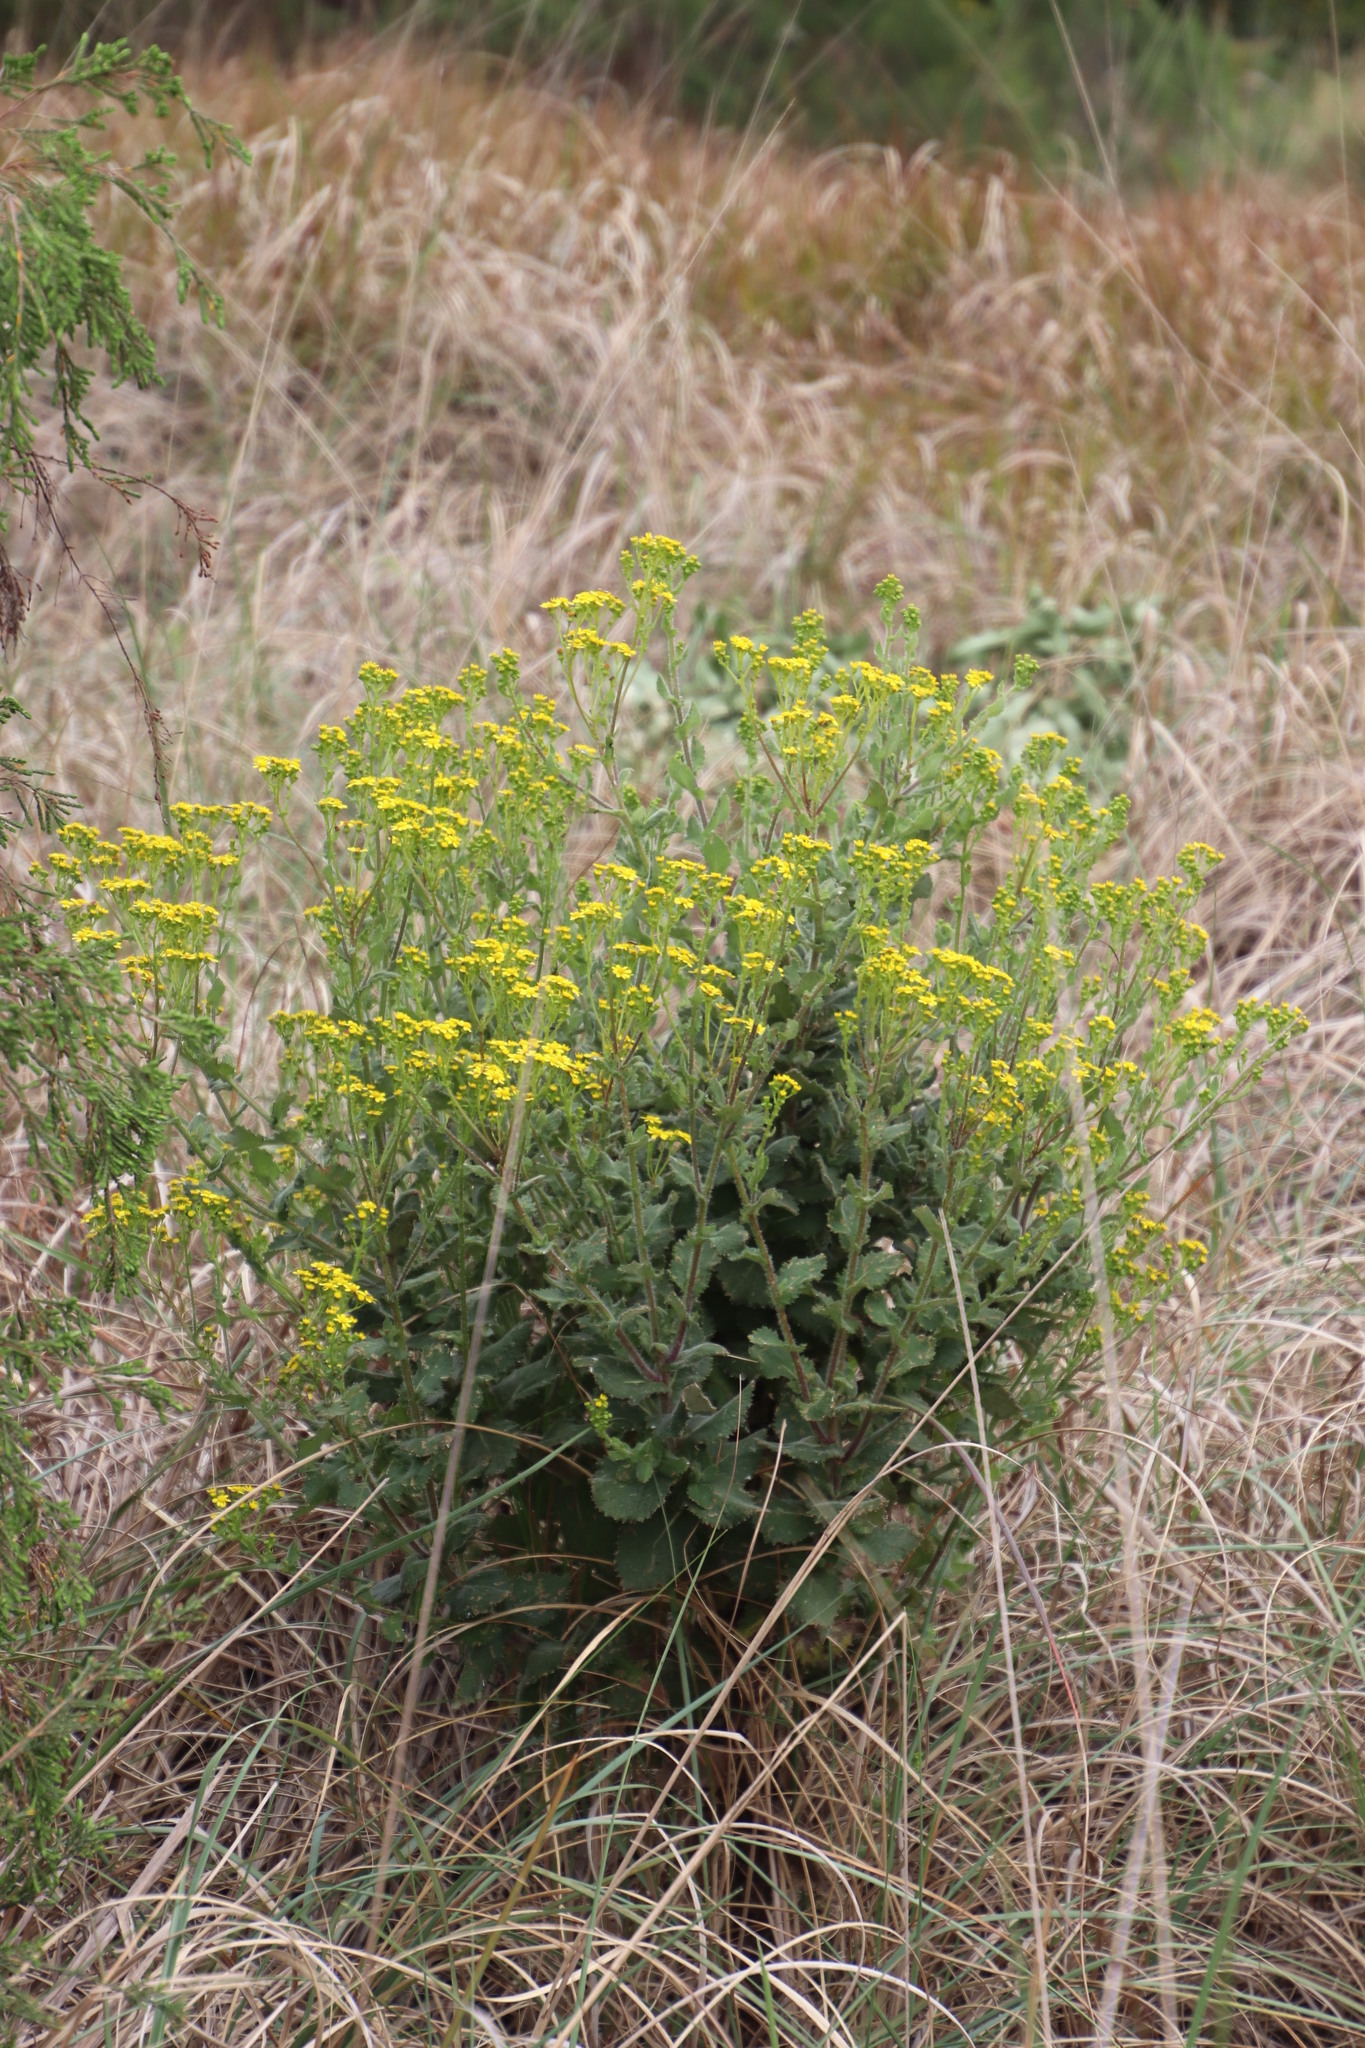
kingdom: Plantae
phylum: Tracheophyta
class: Magnoliopsida
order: Asterales
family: Asteraceae
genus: Senecio
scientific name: Senecio rigidus
